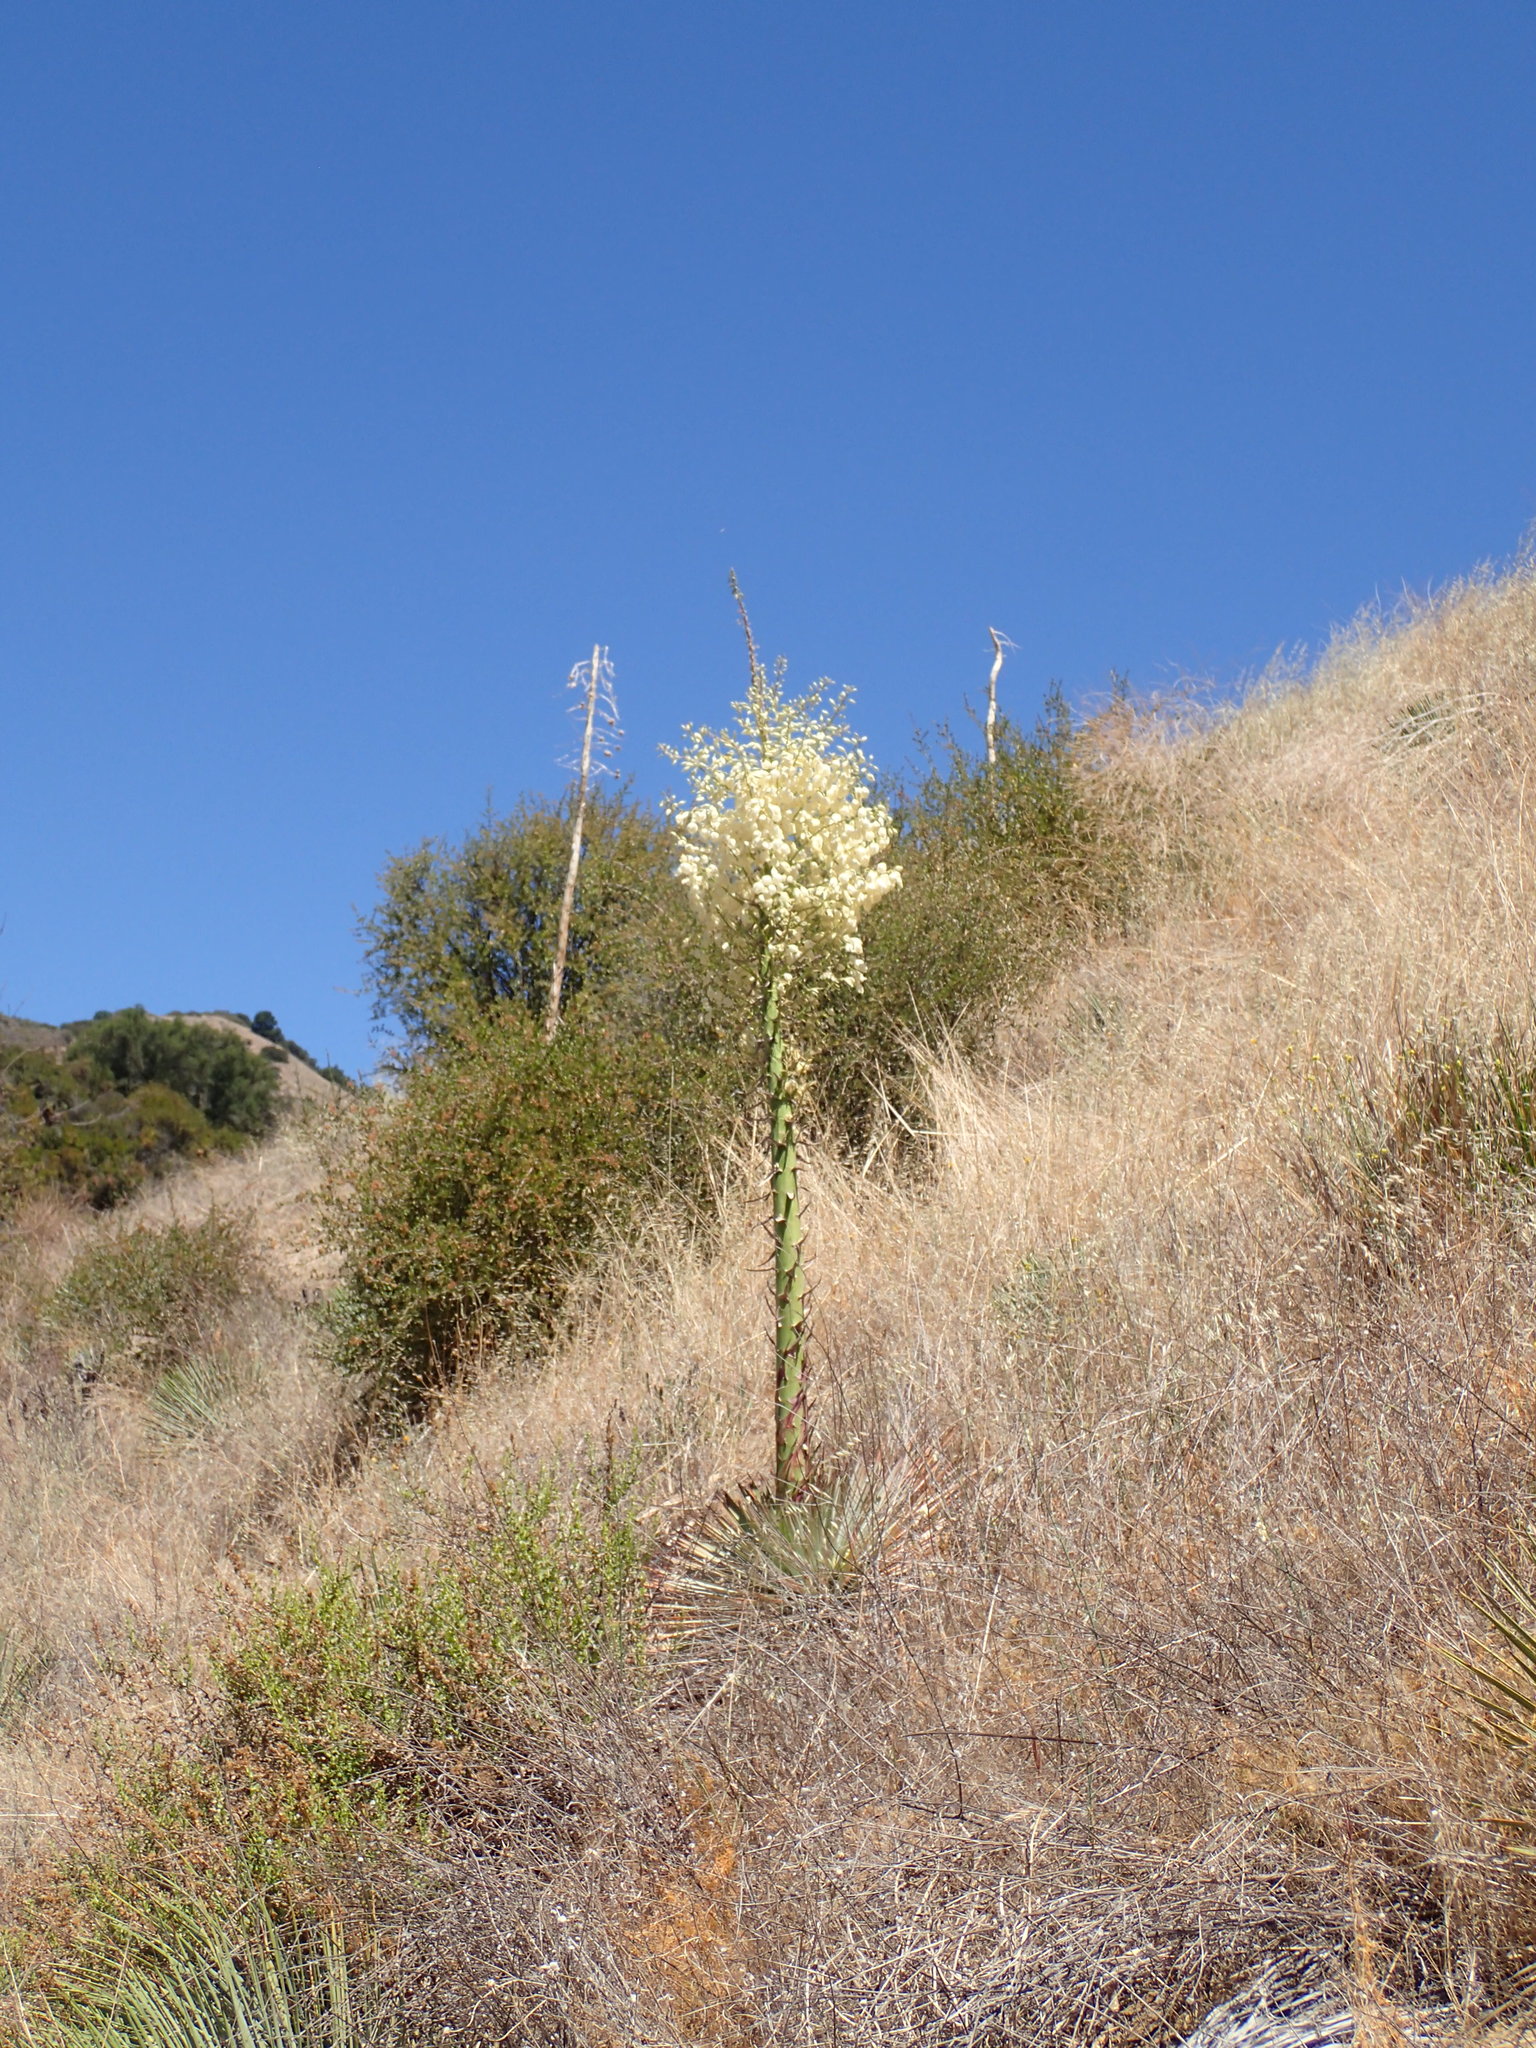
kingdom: Plantae
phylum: Tracheophyta
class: Liliopsida
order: Asparagales
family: Asparagaceae
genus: Hesperoyucca
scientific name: Hesperoyucca whipplei
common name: Our lord's-candle
